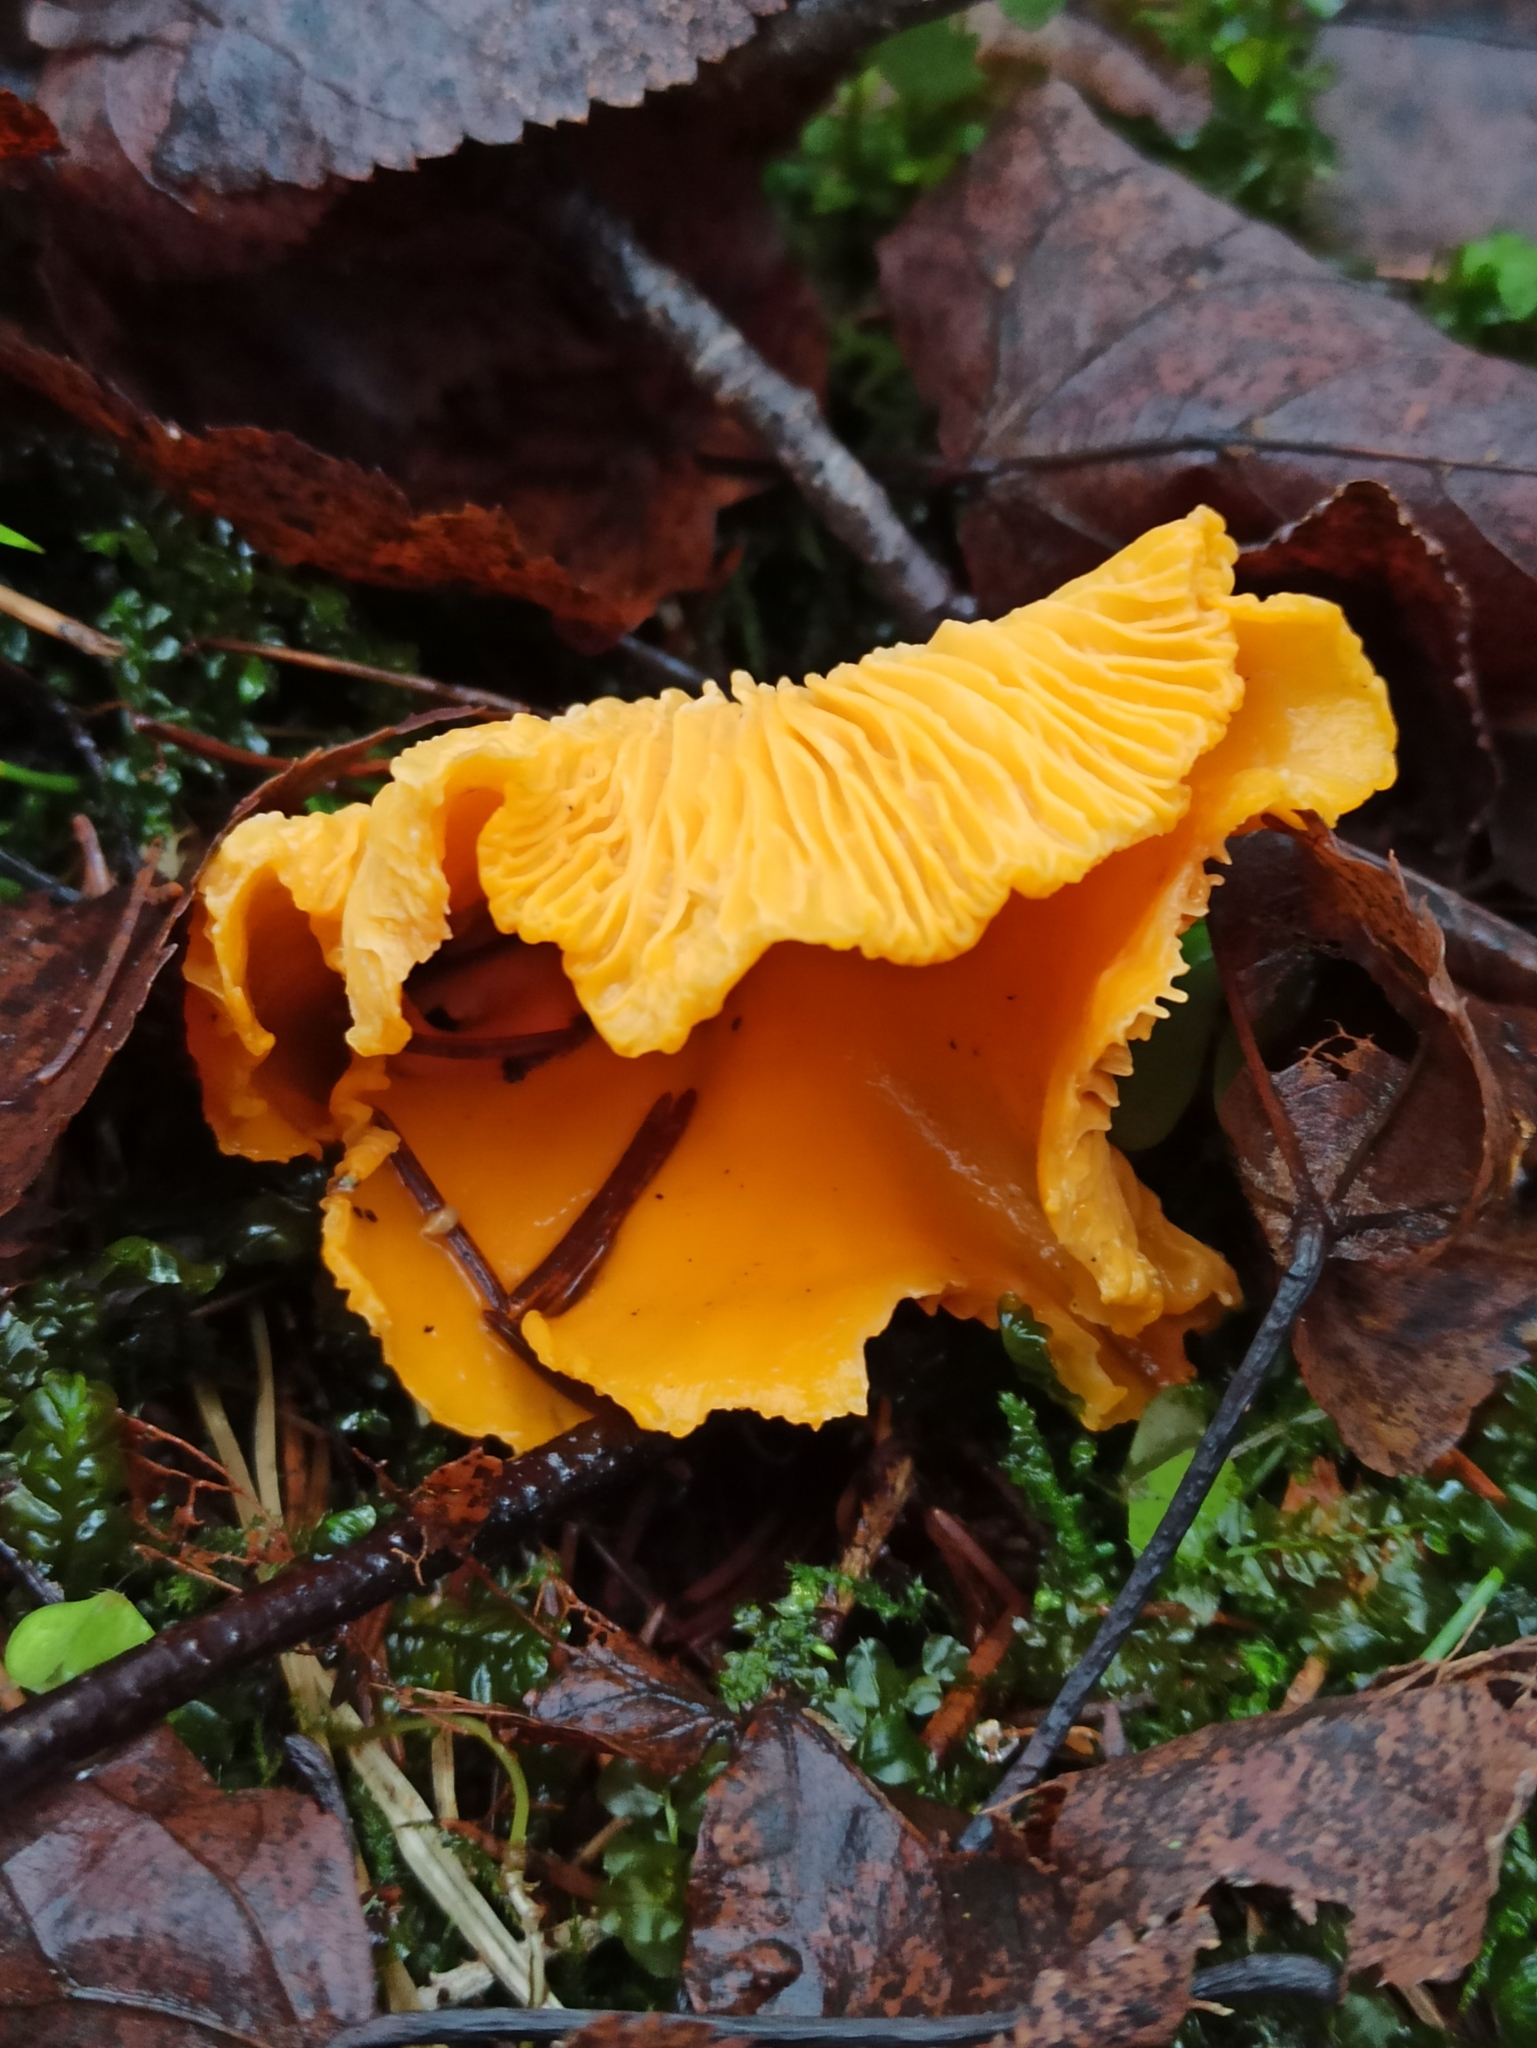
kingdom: Fungi
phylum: Basidiomycota
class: Agaricomycetes
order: Cantharellales
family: Hydnaceae
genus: Cantharellus
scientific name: Cantharellus cibarius
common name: Chanterelle
